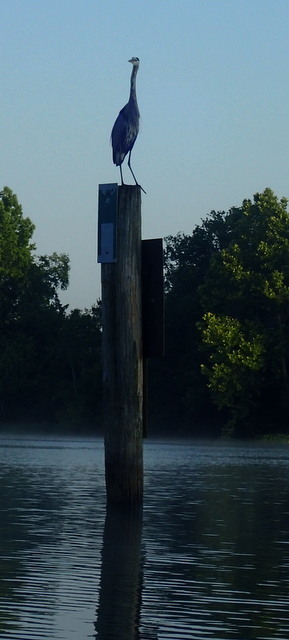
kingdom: Animalia
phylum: Chordata
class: Aves
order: Pelecaniformes
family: Ardeidae
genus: Ardea
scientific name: Ardea herodias
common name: Great blue heron
